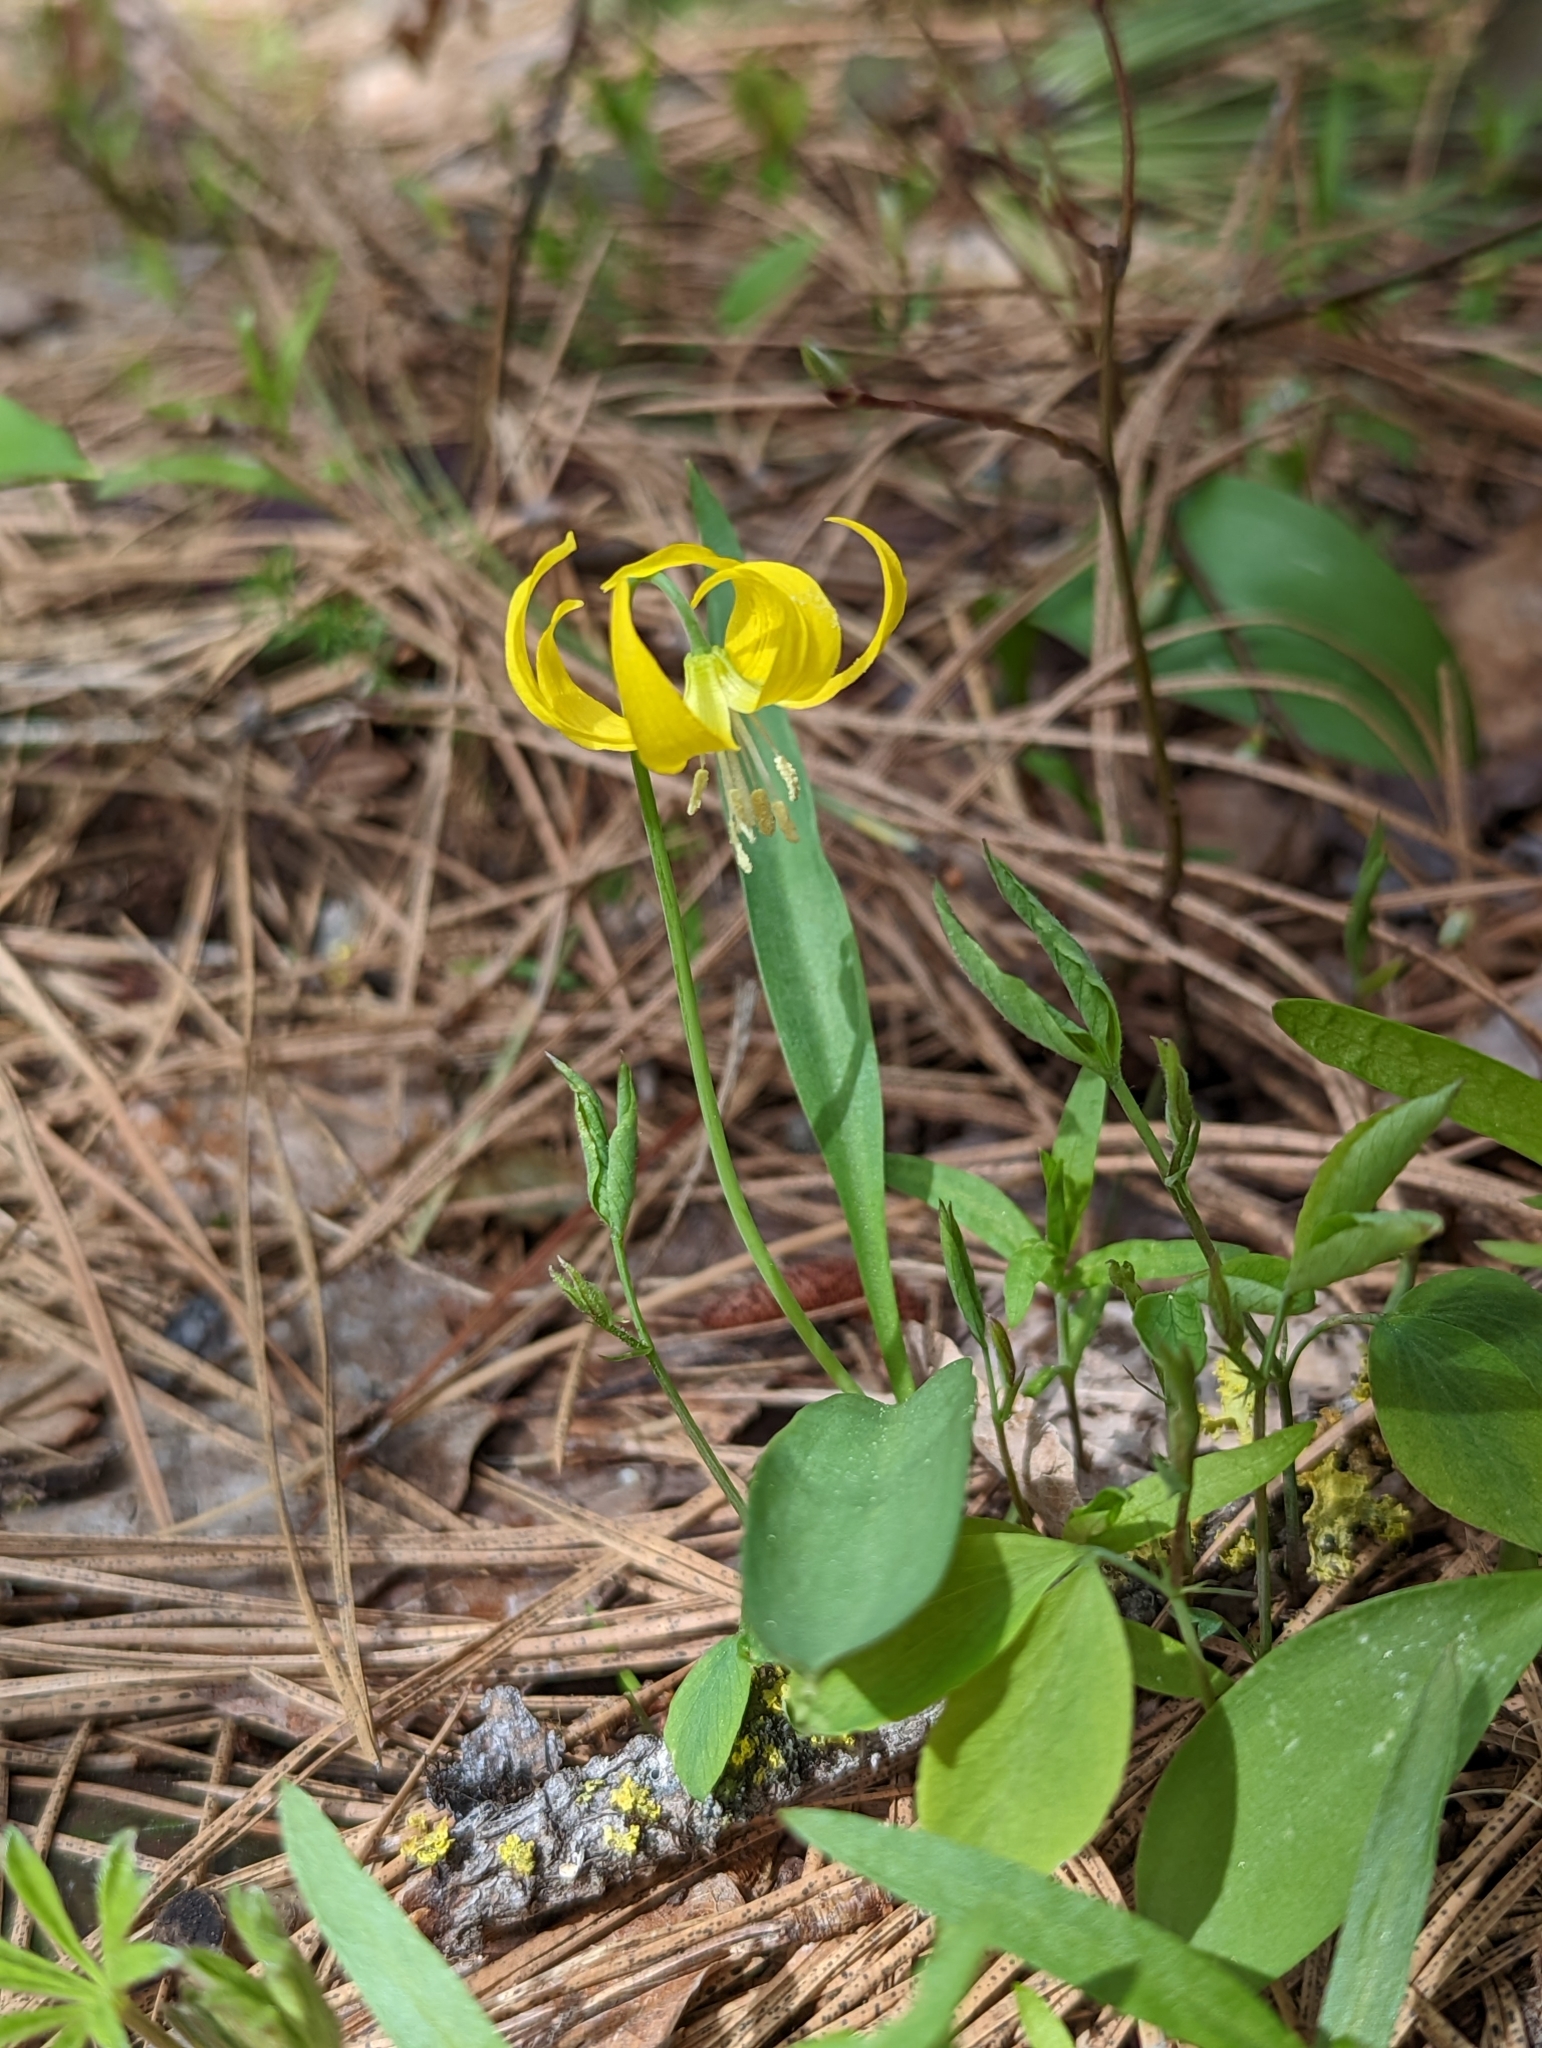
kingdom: Plantae
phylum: Tracheophyta
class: Liliopsida
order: Liliales
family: Liliaceae
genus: Erythronium
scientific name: Erythronium grandiflorum
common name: Avalanche-lily
